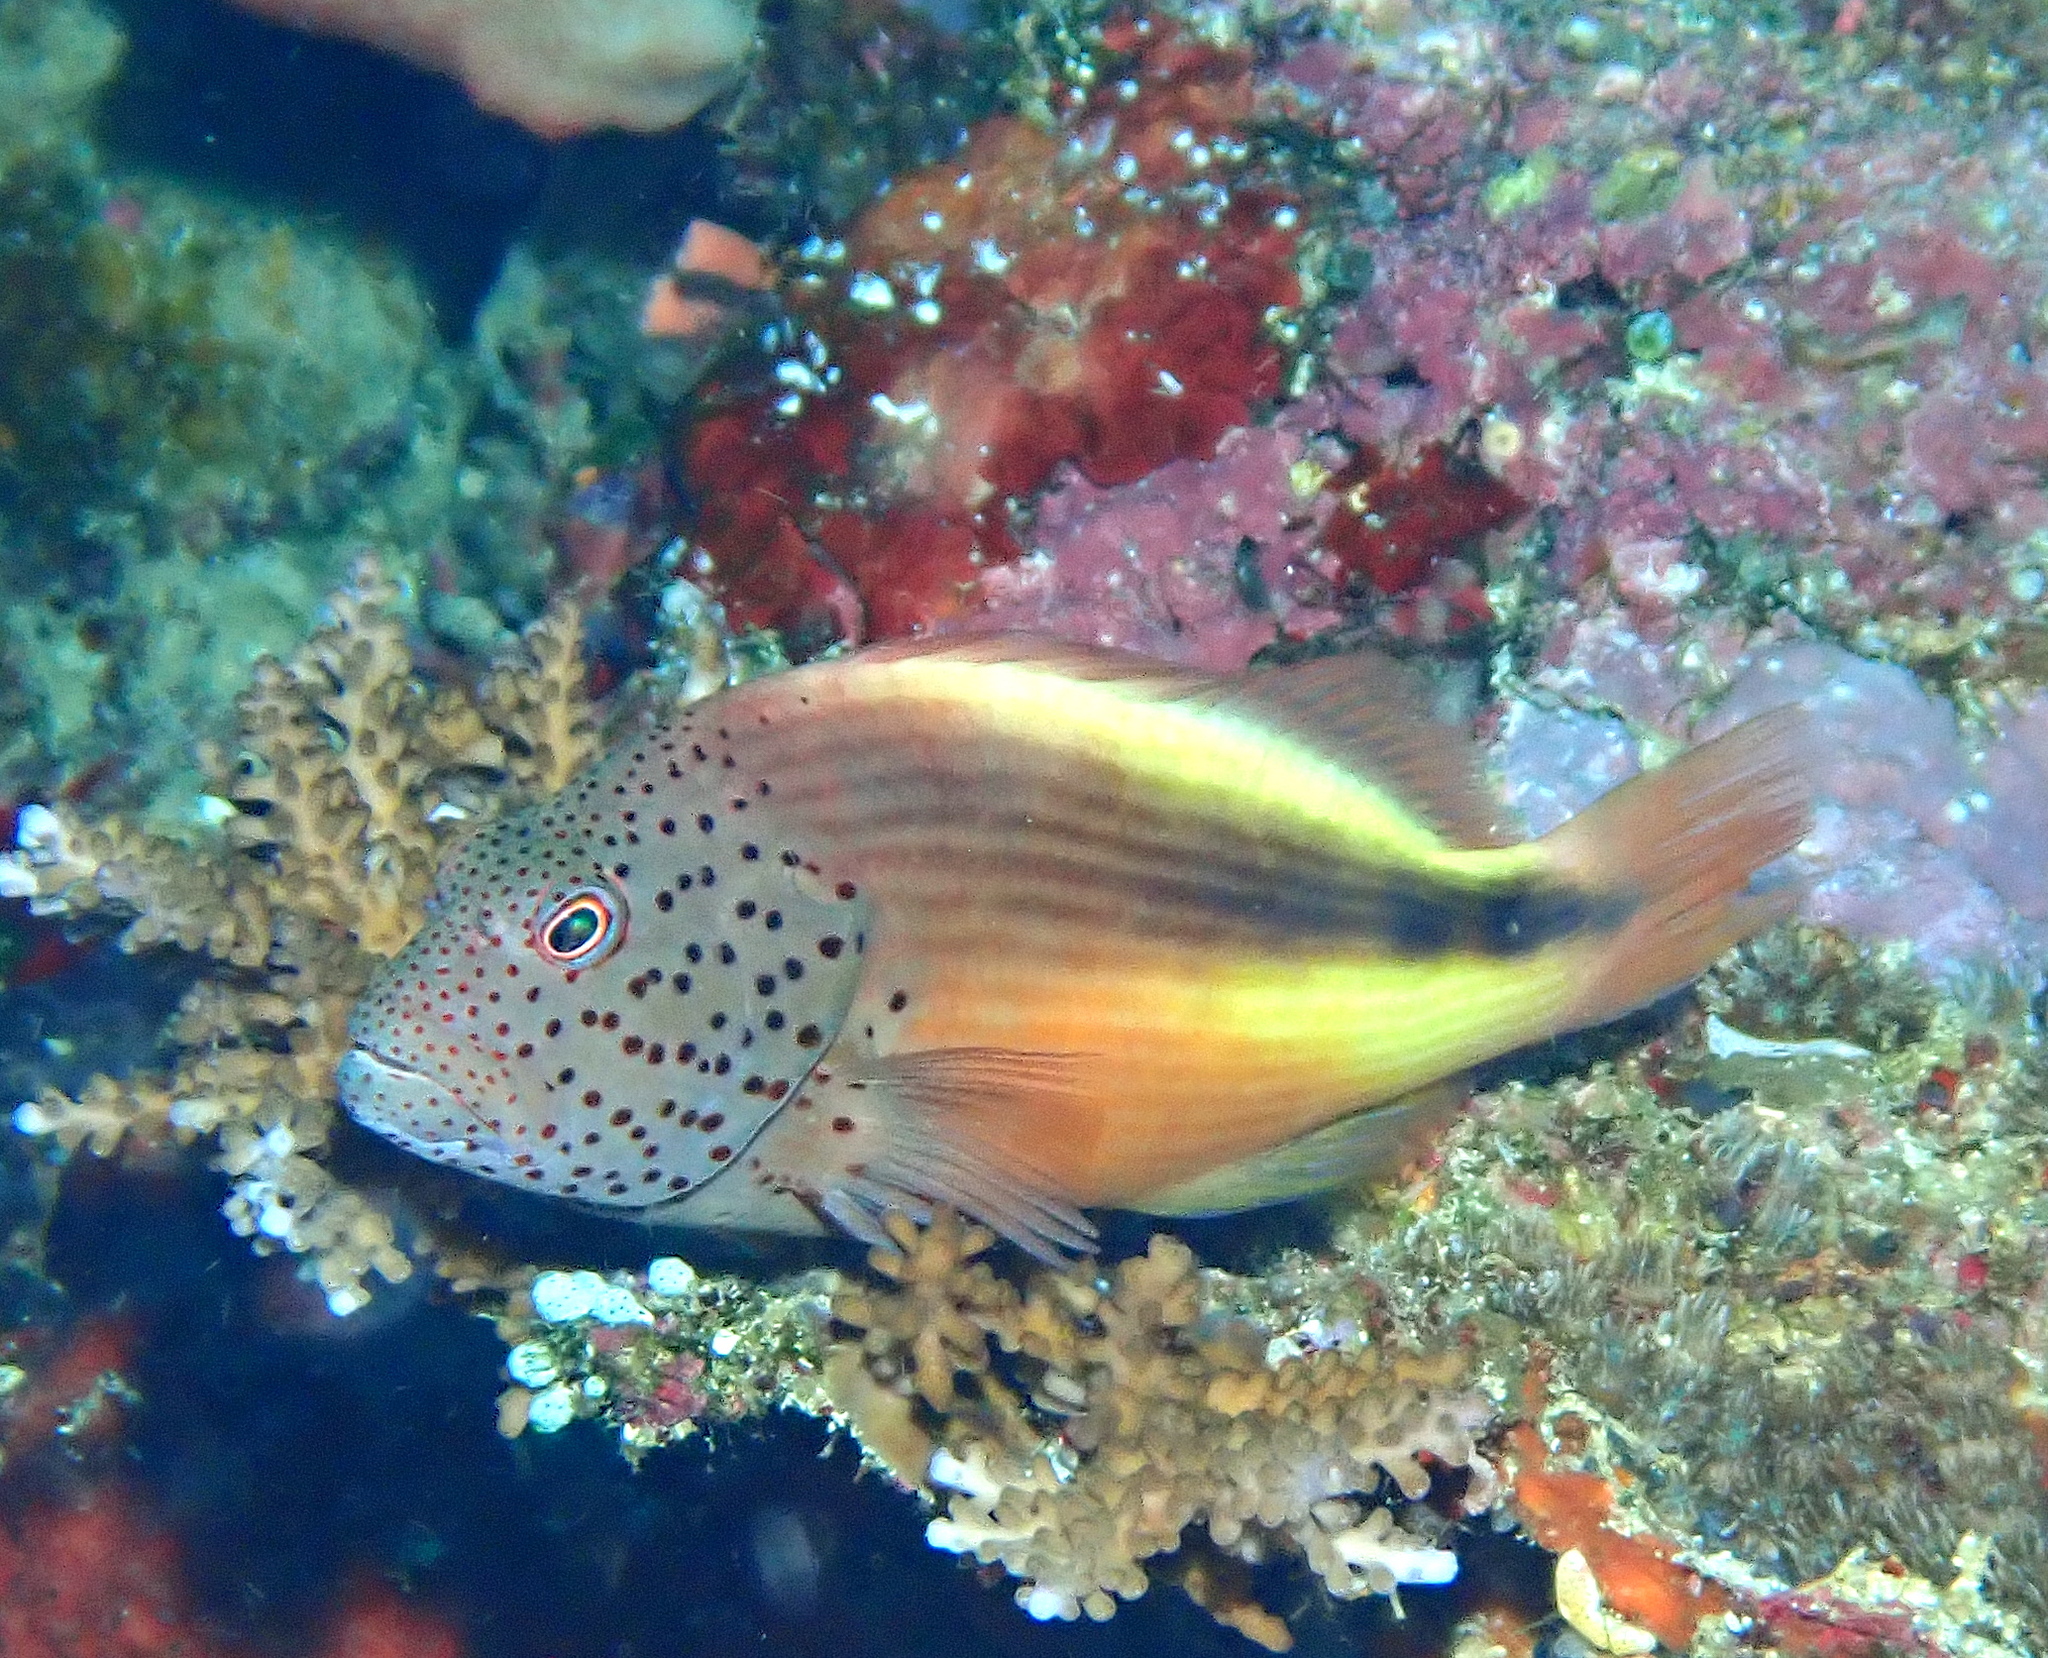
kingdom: Animalia
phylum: Chordata
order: Perciformes
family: Cirrhitidae
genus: Paracirrhites
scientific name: Paracirrhites forsteri
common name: Freckled hawkfish
